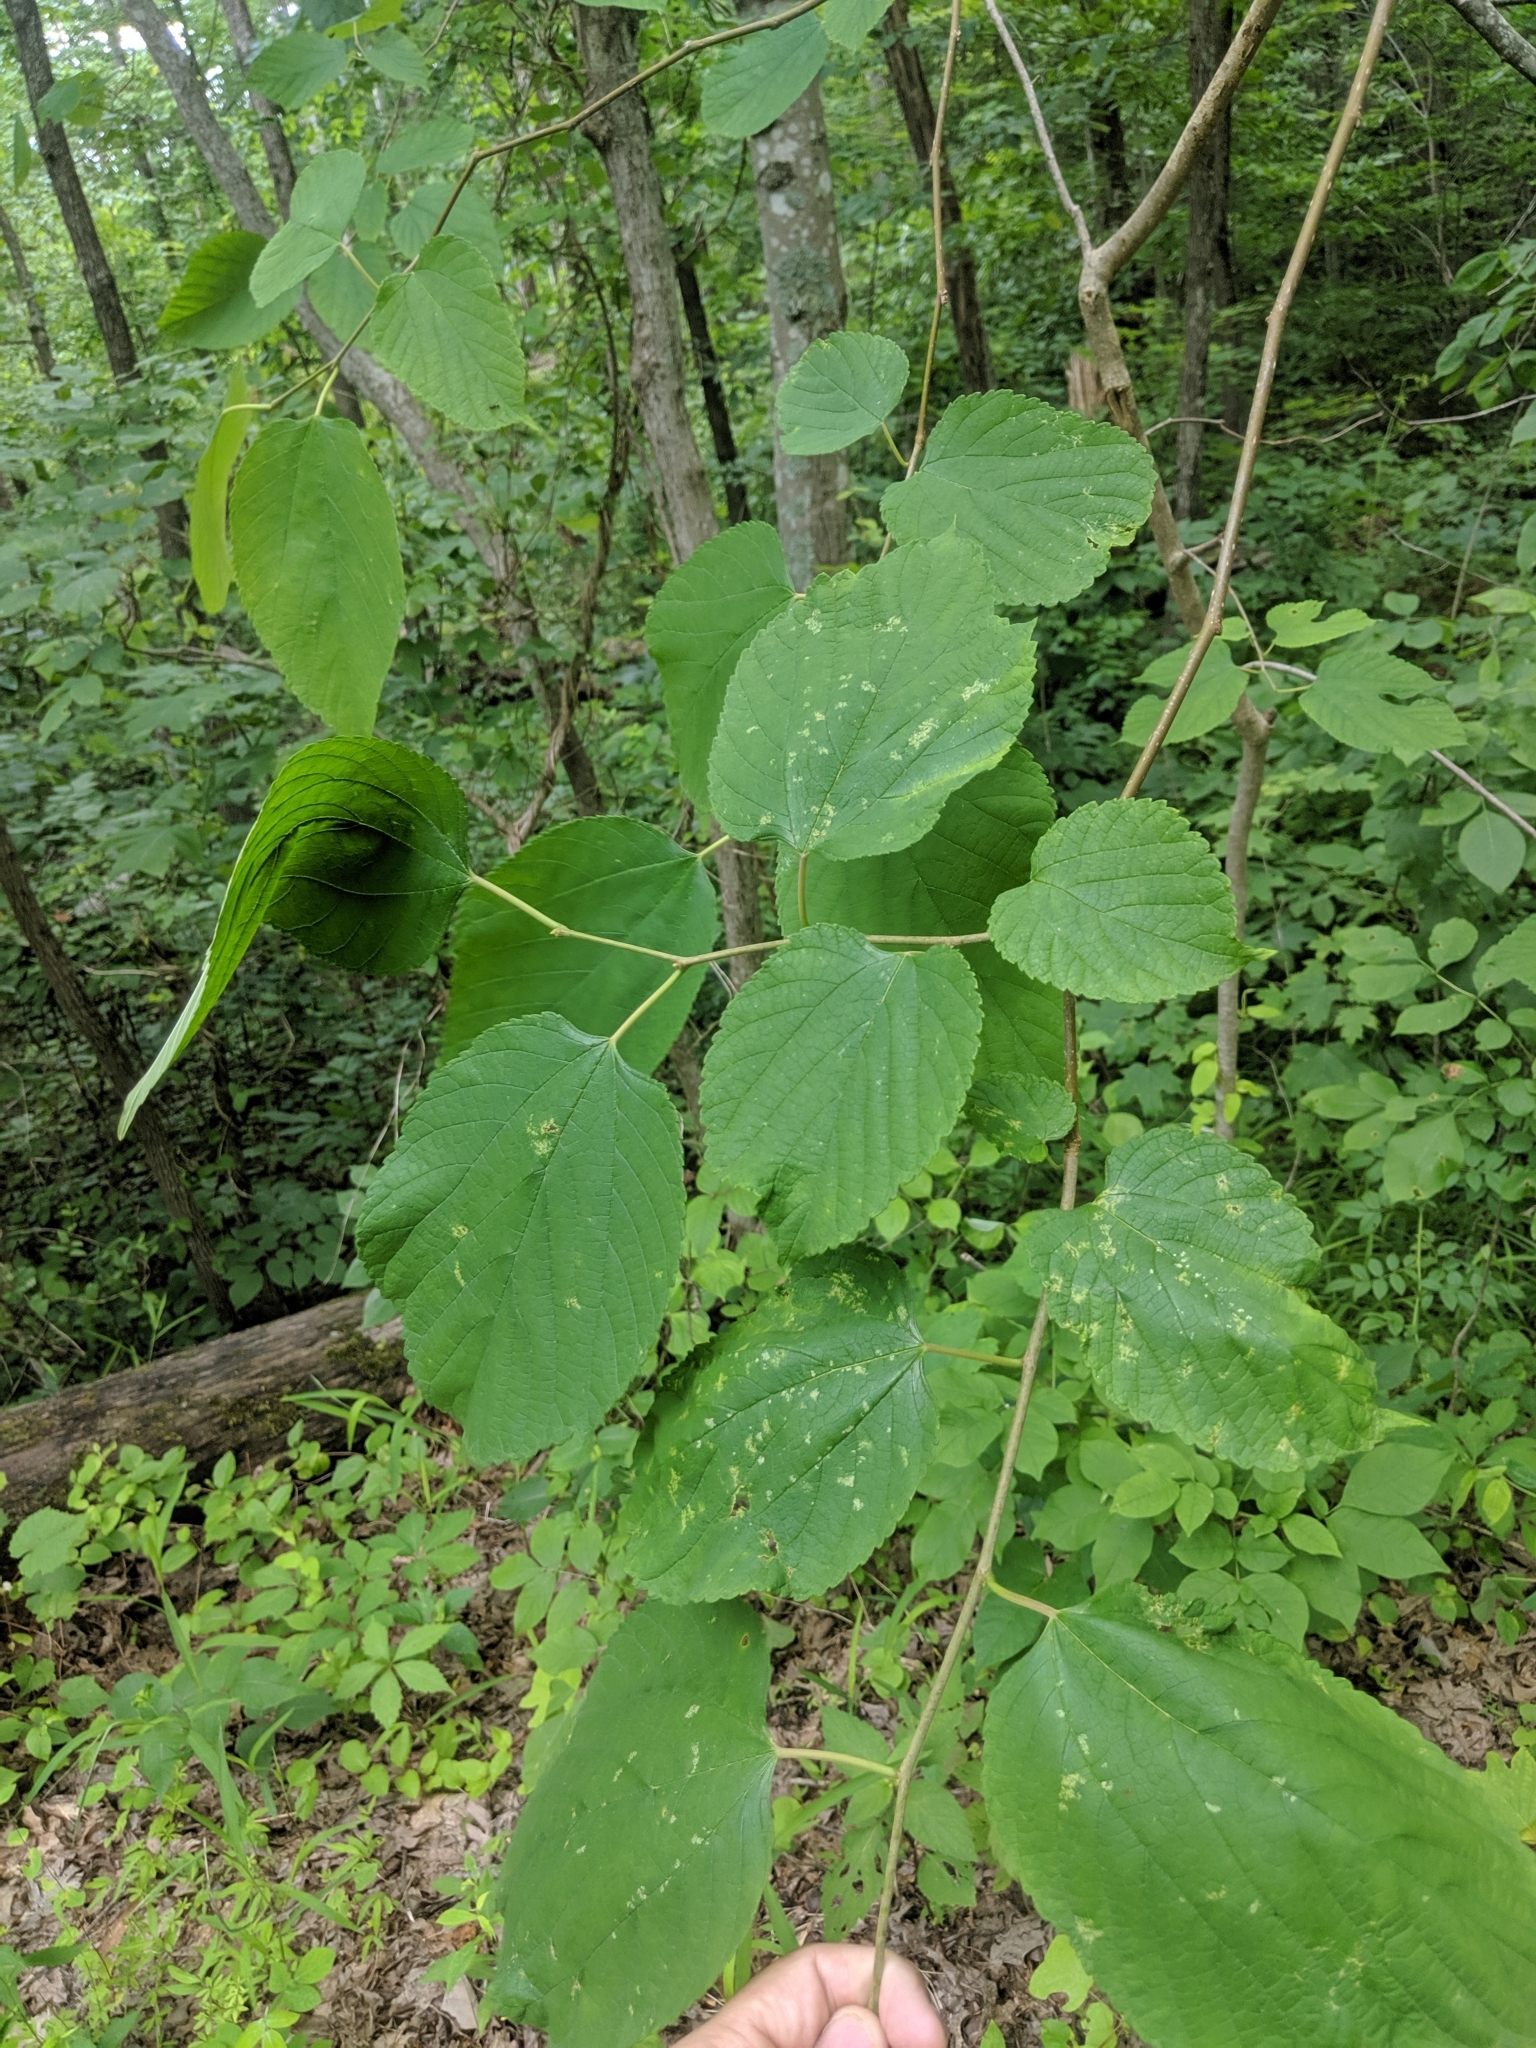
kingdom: Plantae
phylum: Tracheophyta
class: Magnoliopsida
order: Rosales
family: Moraceae
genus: Morus
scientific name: Morus rubra
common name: Red mulberry
